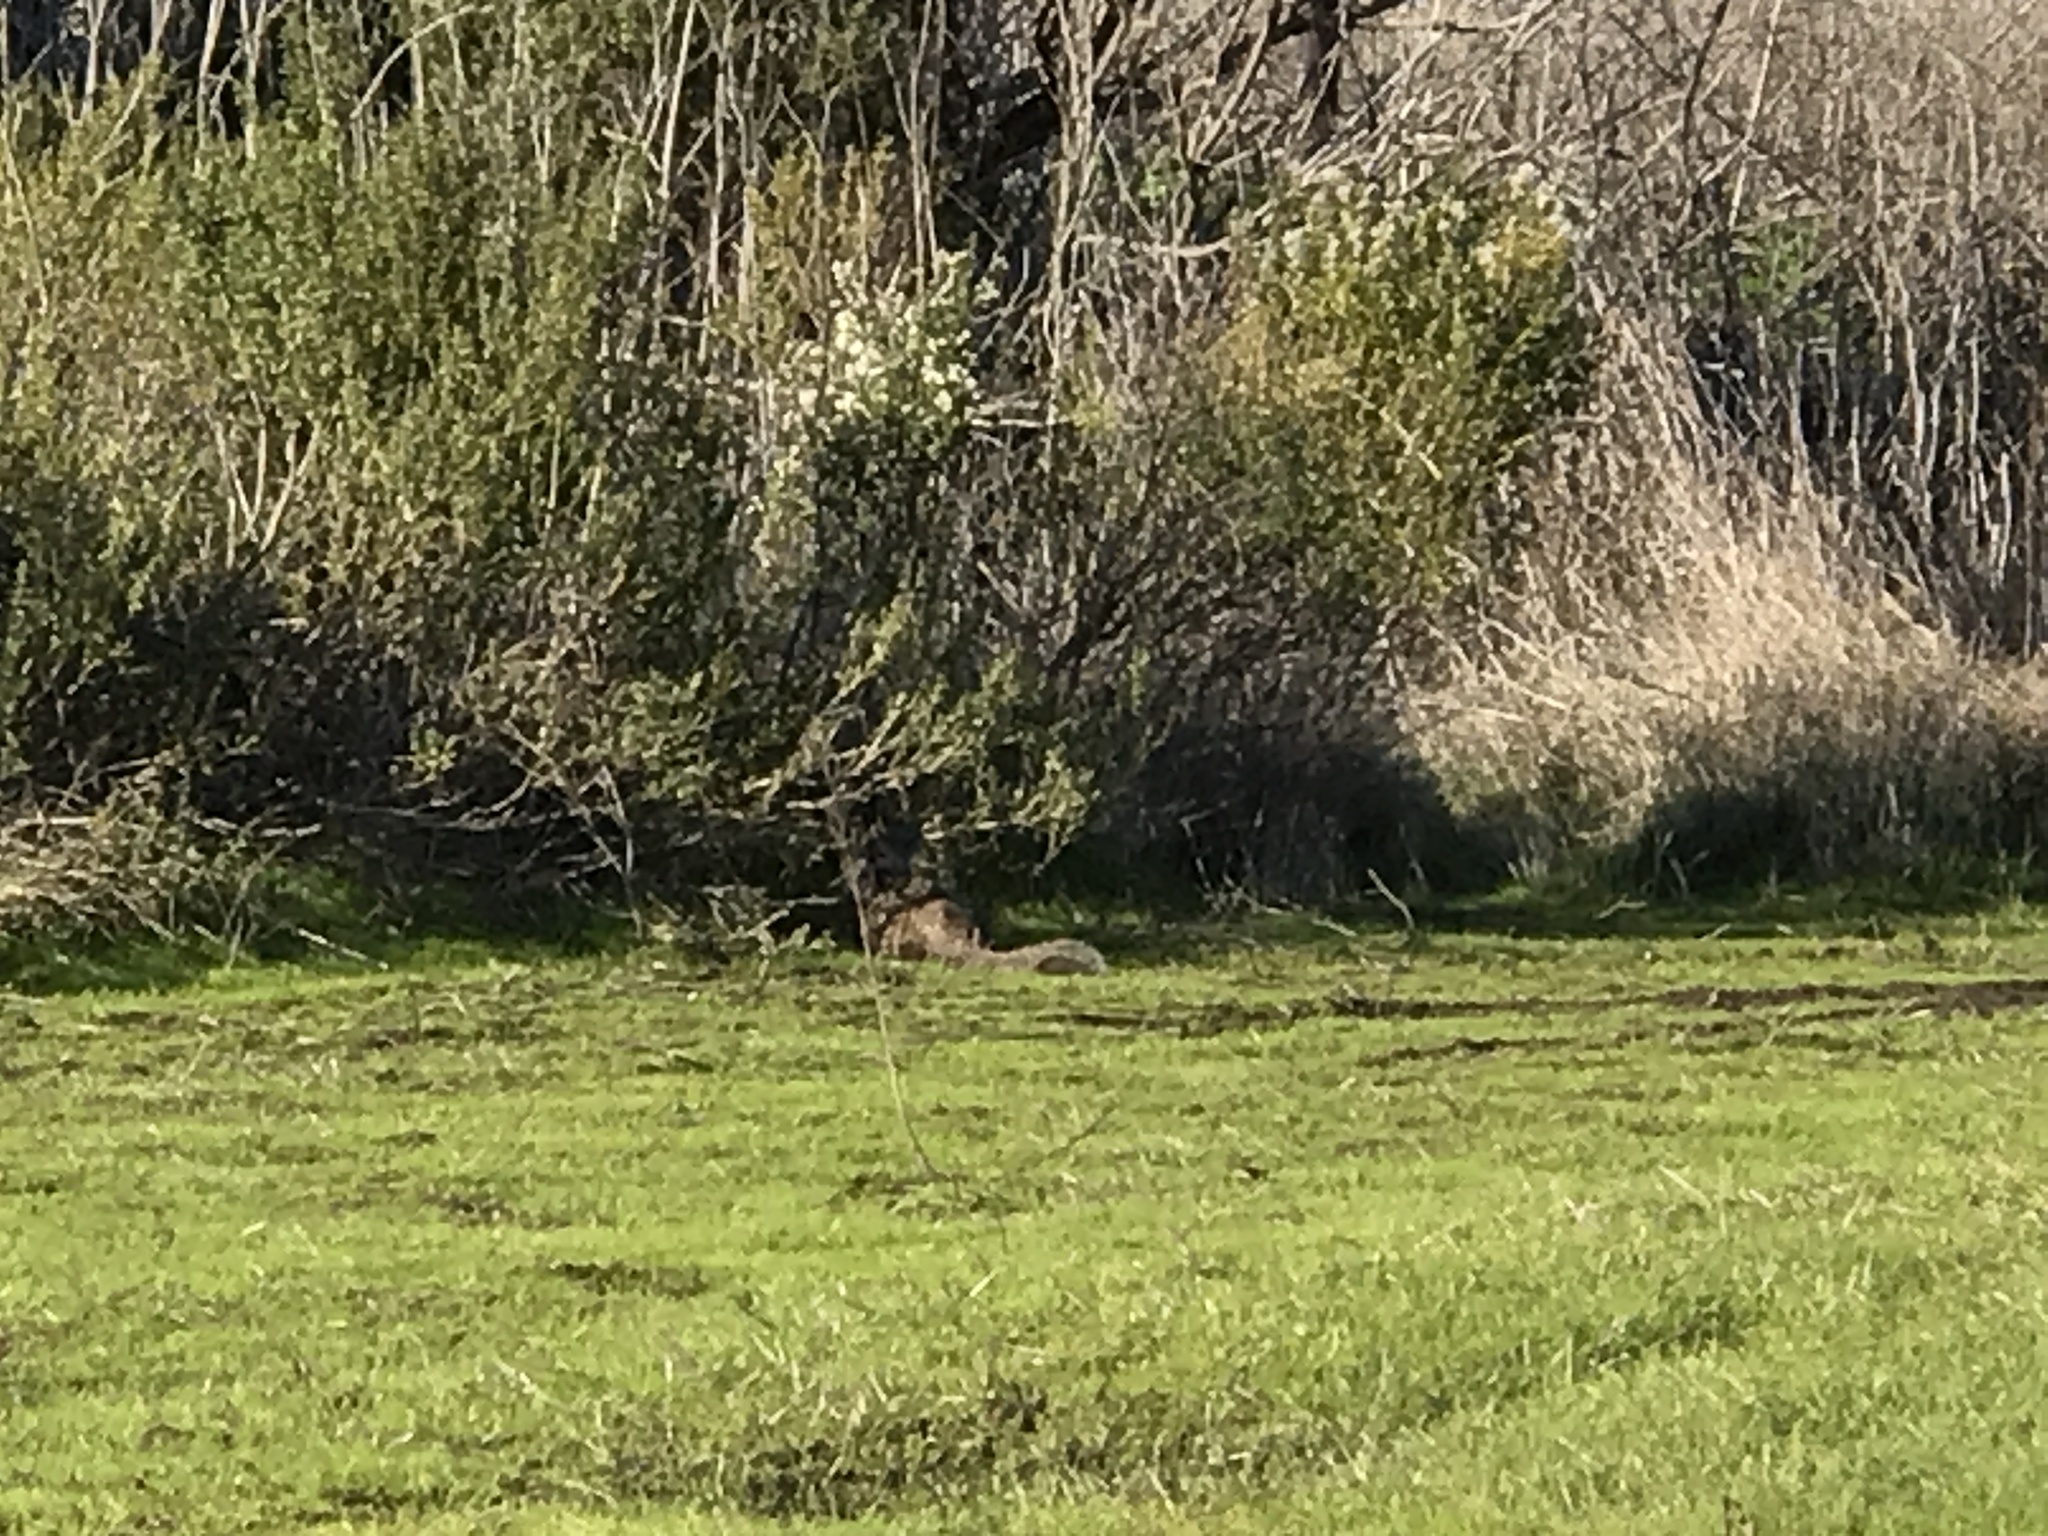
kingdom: Animalia
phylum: Chordata
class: Mammalia
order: Rodentia
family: Sciuridae
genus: Otospermophilus
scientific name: Otospermophilus beecheyi
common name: California ground squirrel
